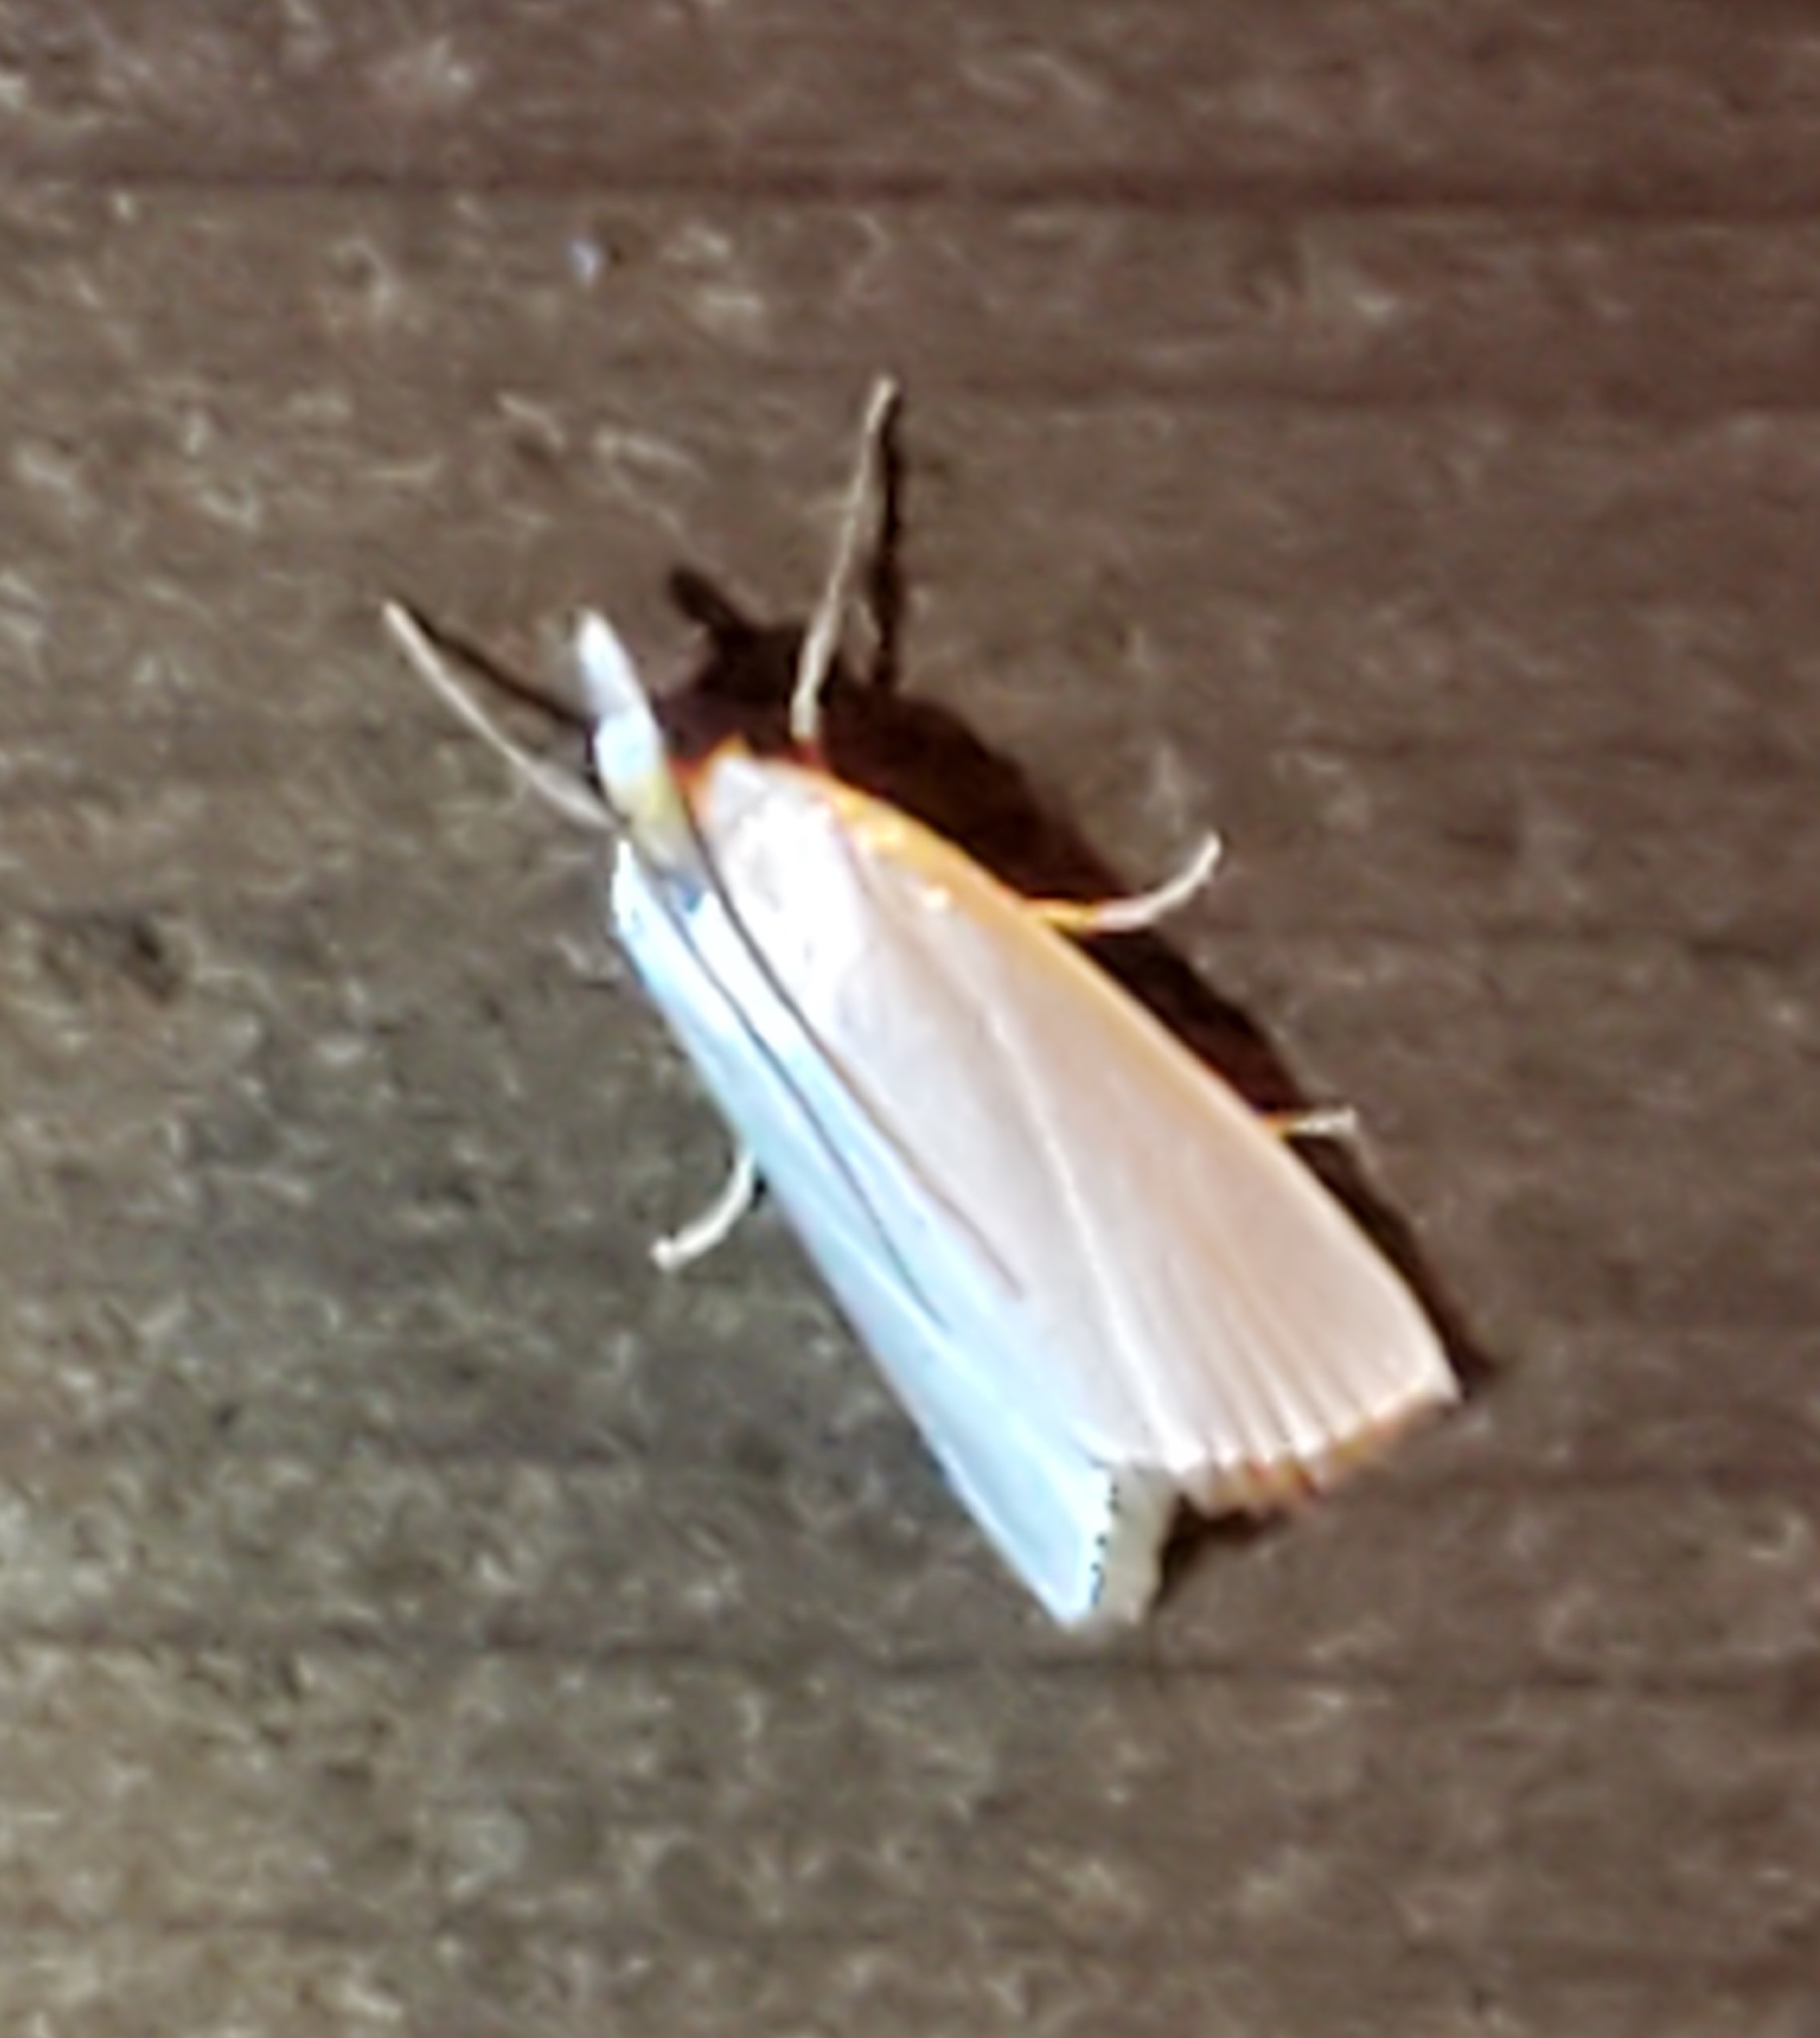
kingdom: Animalia
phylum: Arthropoda
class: Insecta
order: Lepidoptera
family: Crambidae
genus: Argyria
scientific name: Argyria nivalis
